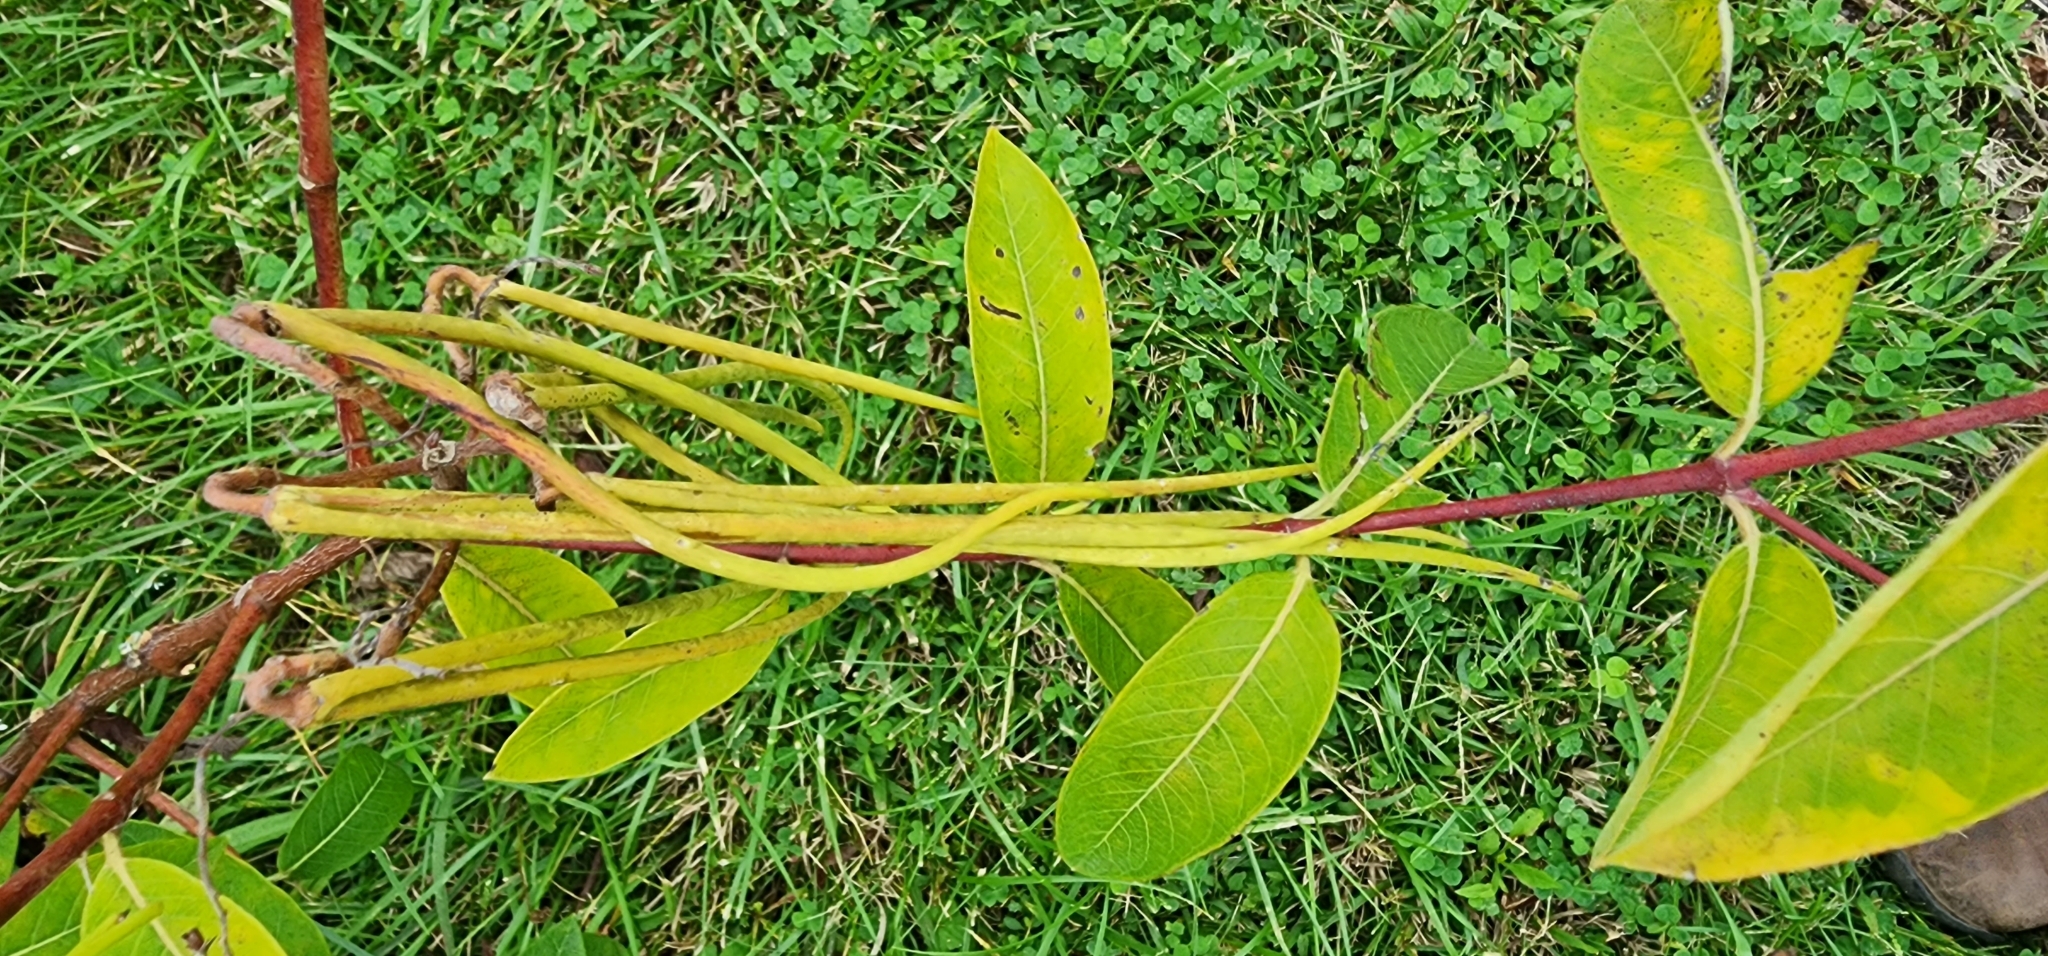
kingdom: Plantae
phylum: Tracheophyta
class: Magnoliopsida
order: Gentianales
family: Apocynaceae
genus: Apocynum
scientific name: Apocynum cannabinum
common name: Hemp dogbane
